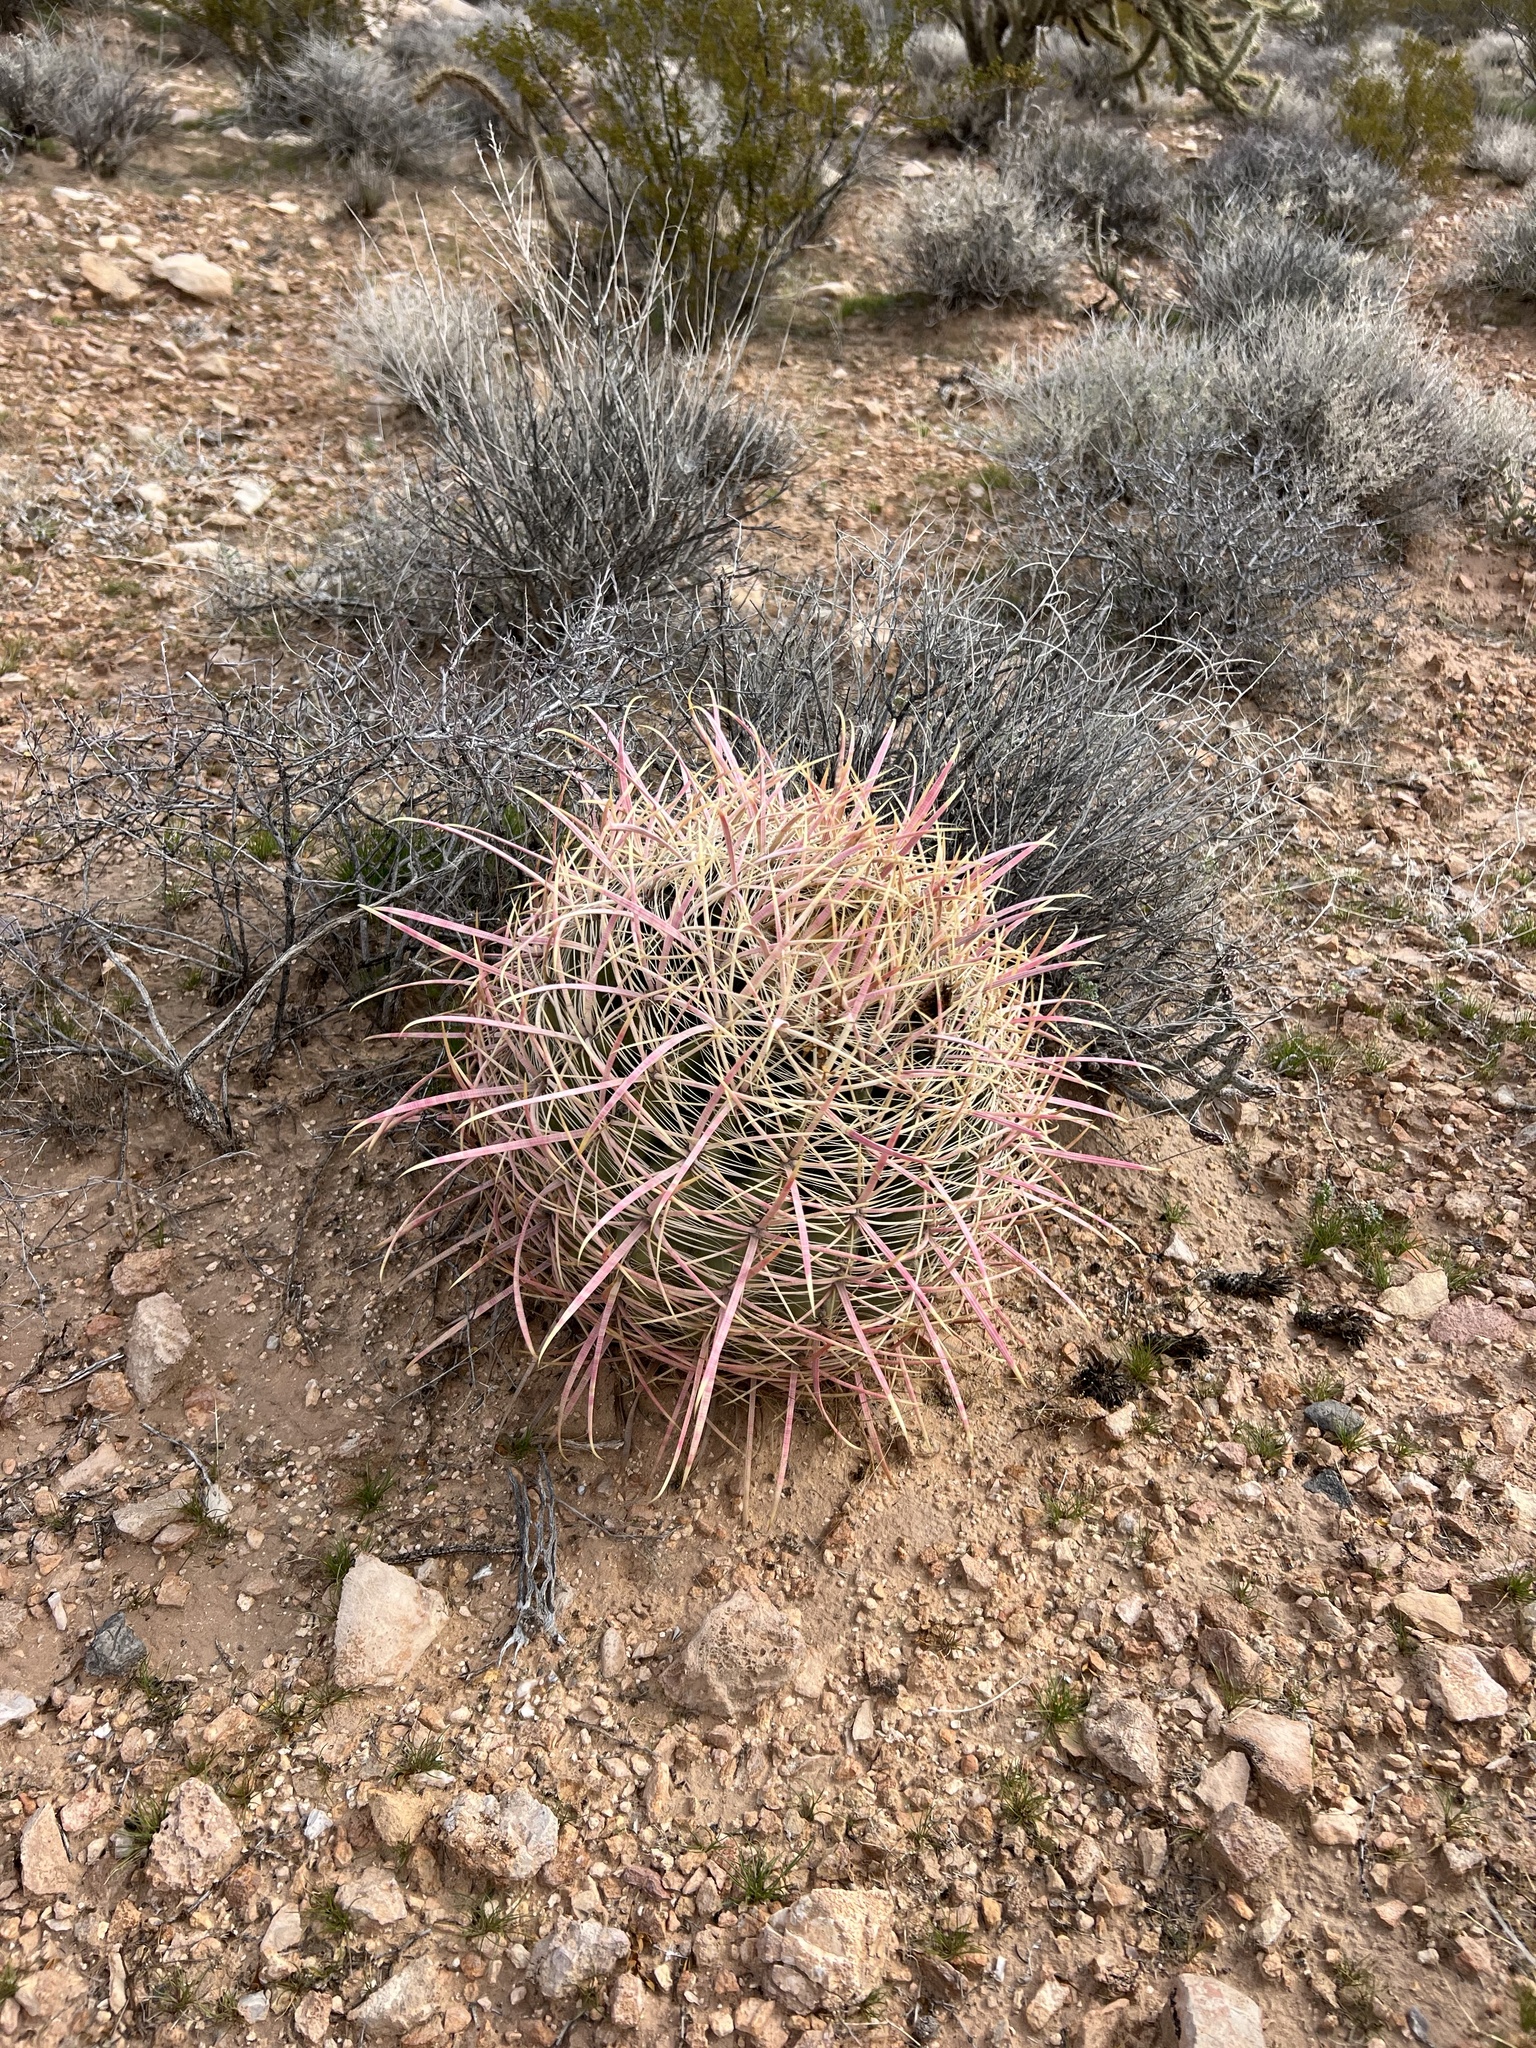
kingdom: Plantae
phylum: Tracheophyta
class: Magnoliopsida
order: Caryophyllales
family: Cactaceae
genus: Ferocactus
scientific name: Ferocactus cylindraceus
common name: California barrel cactus
